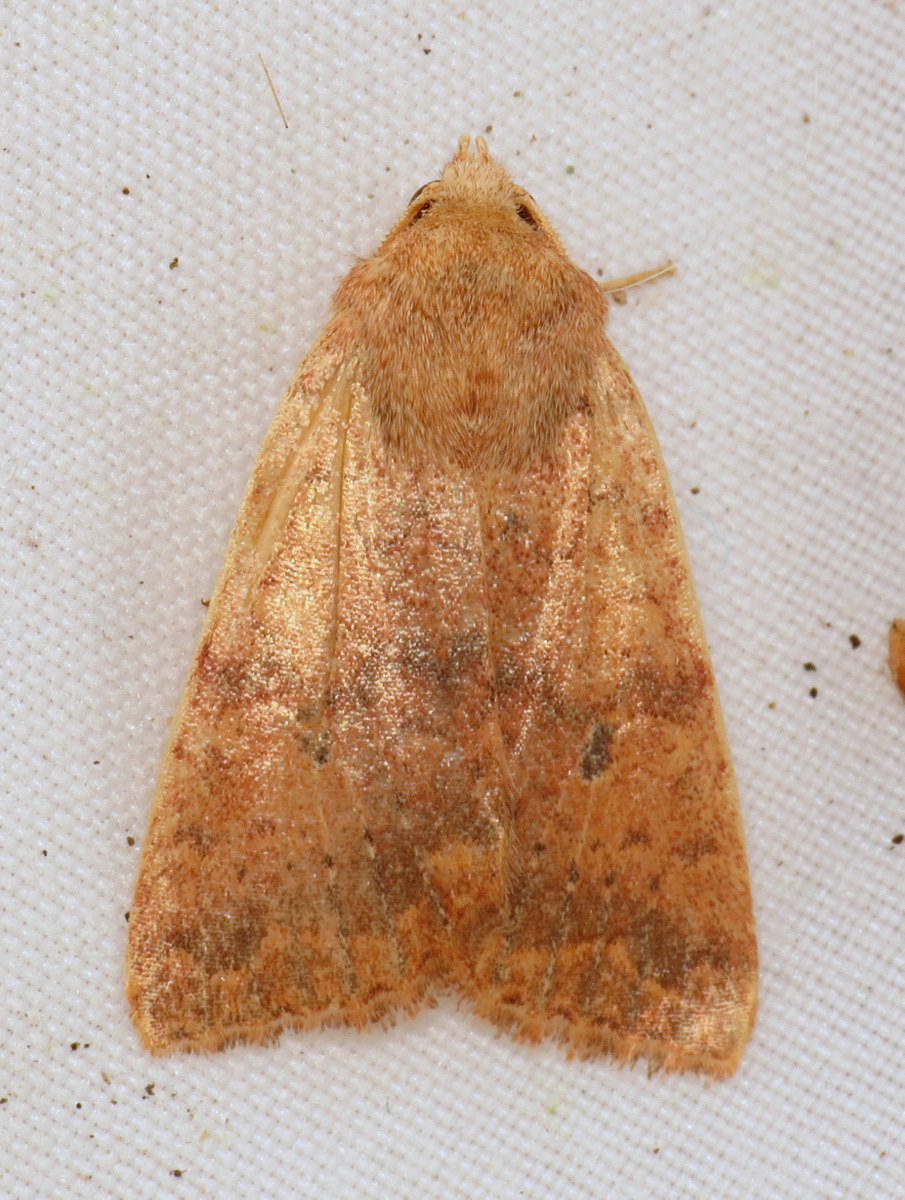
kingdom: Animalia
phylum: Arthropoda
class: Insecta
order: Lepidoptera
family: Noctuidae
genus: Agrochola
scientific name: Agrochola bicolorago
